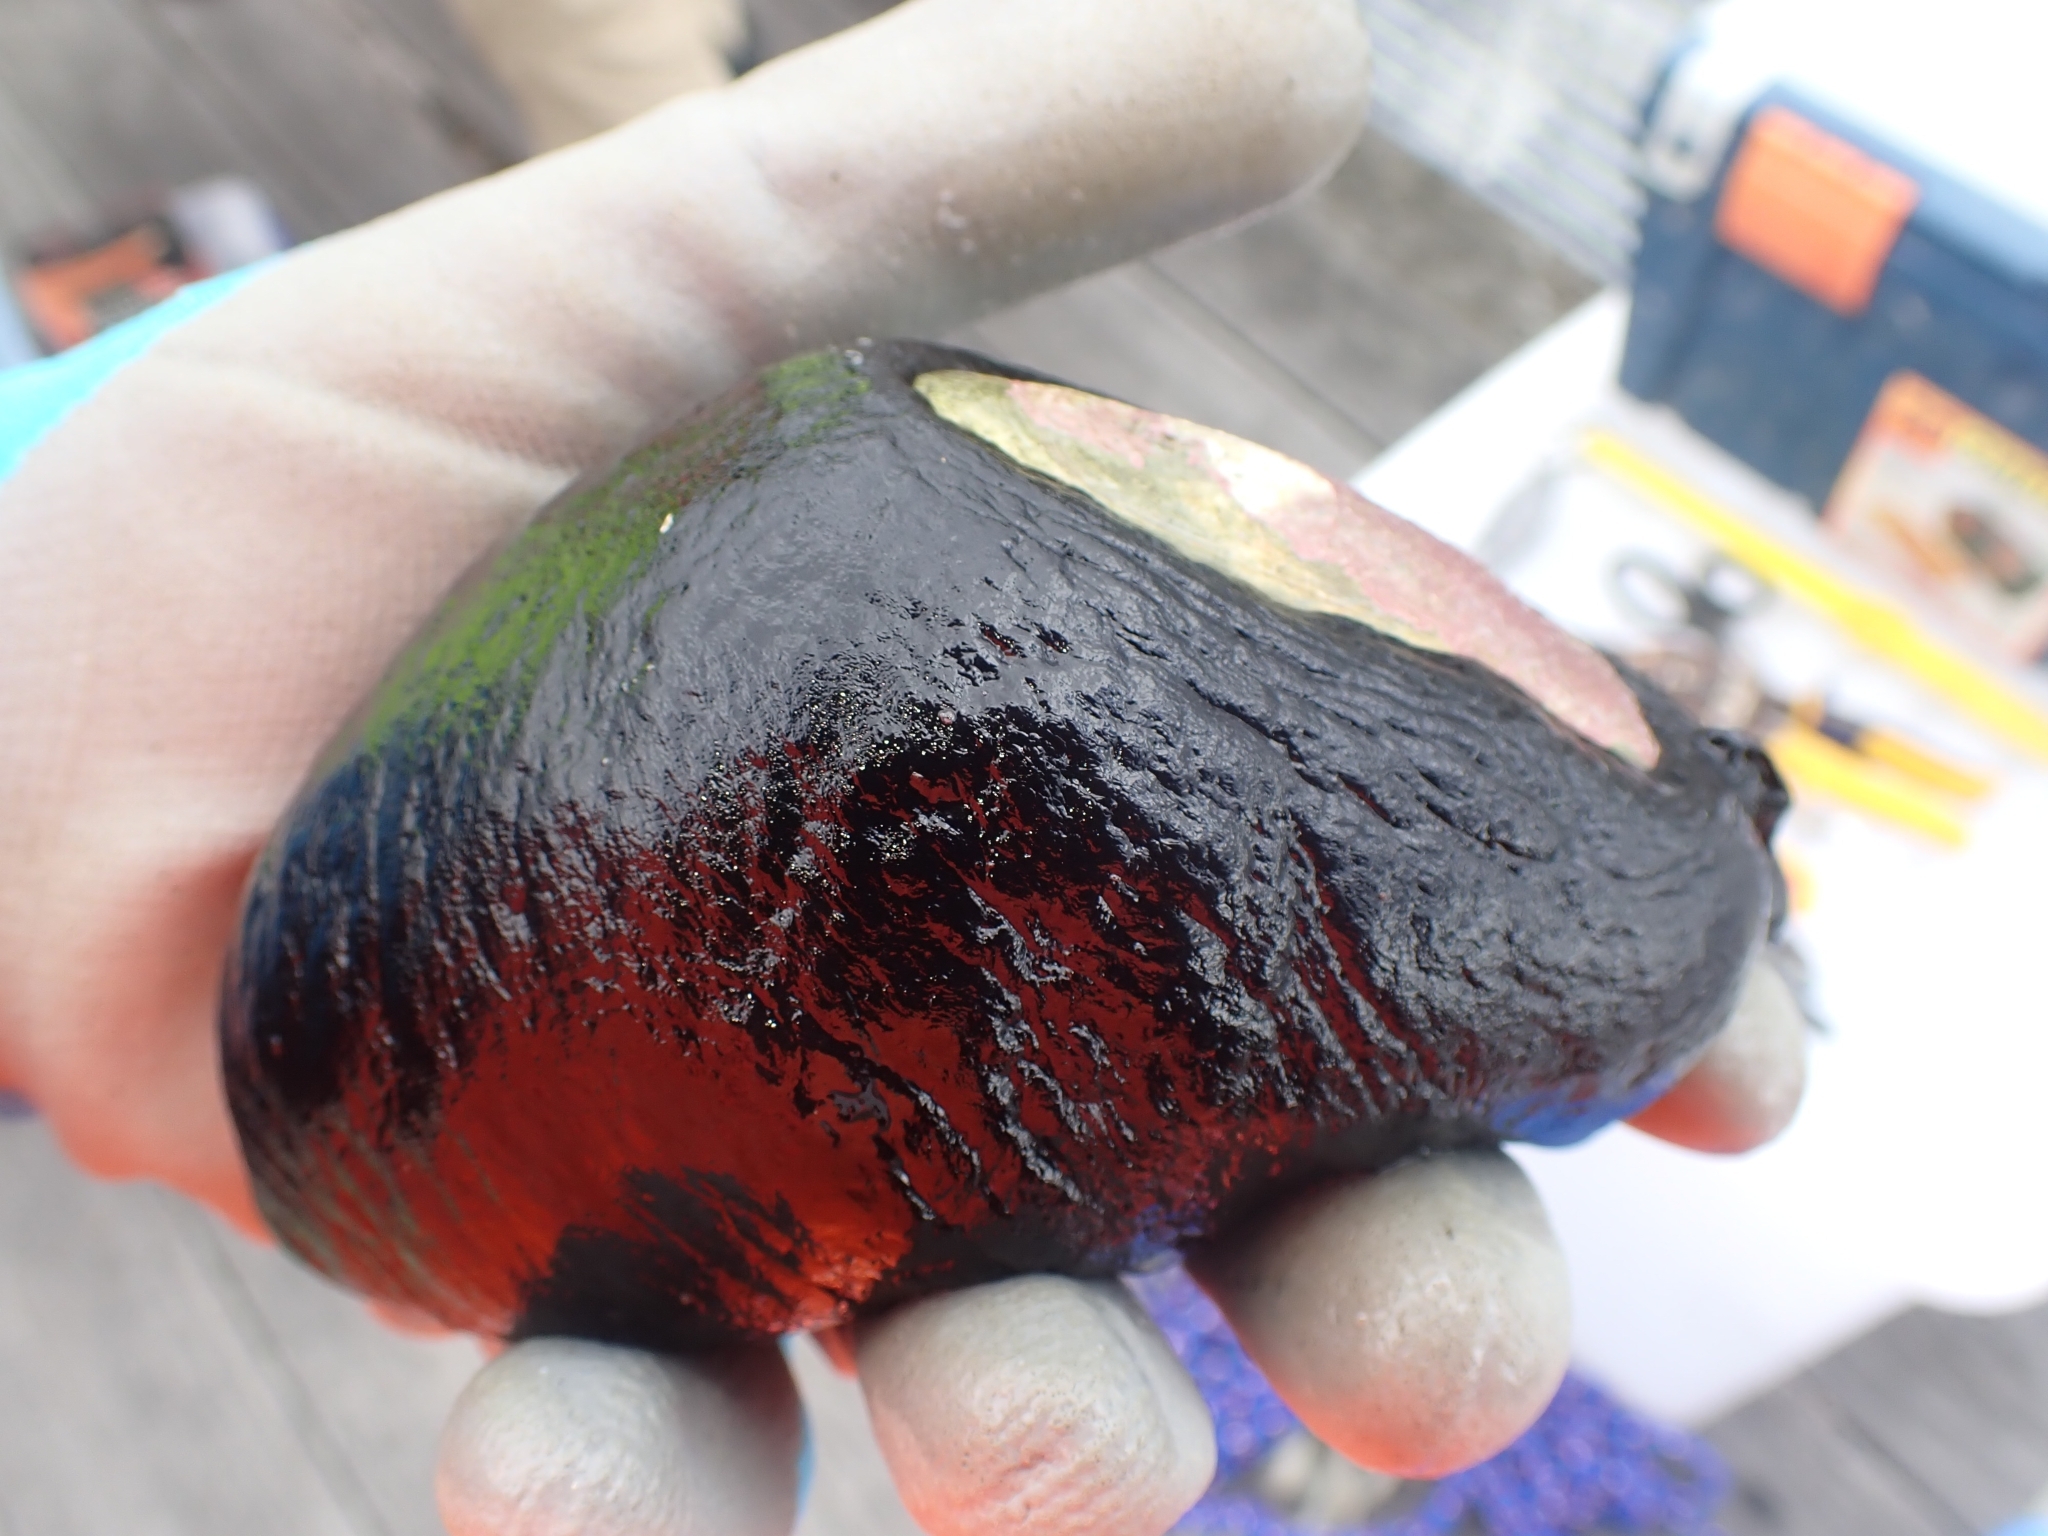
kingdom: Animalia
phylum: Mollusca
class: Gastropoda
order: Lepetellida
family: Fissurellidae
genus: Scutus
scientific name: Scutus breviculus
